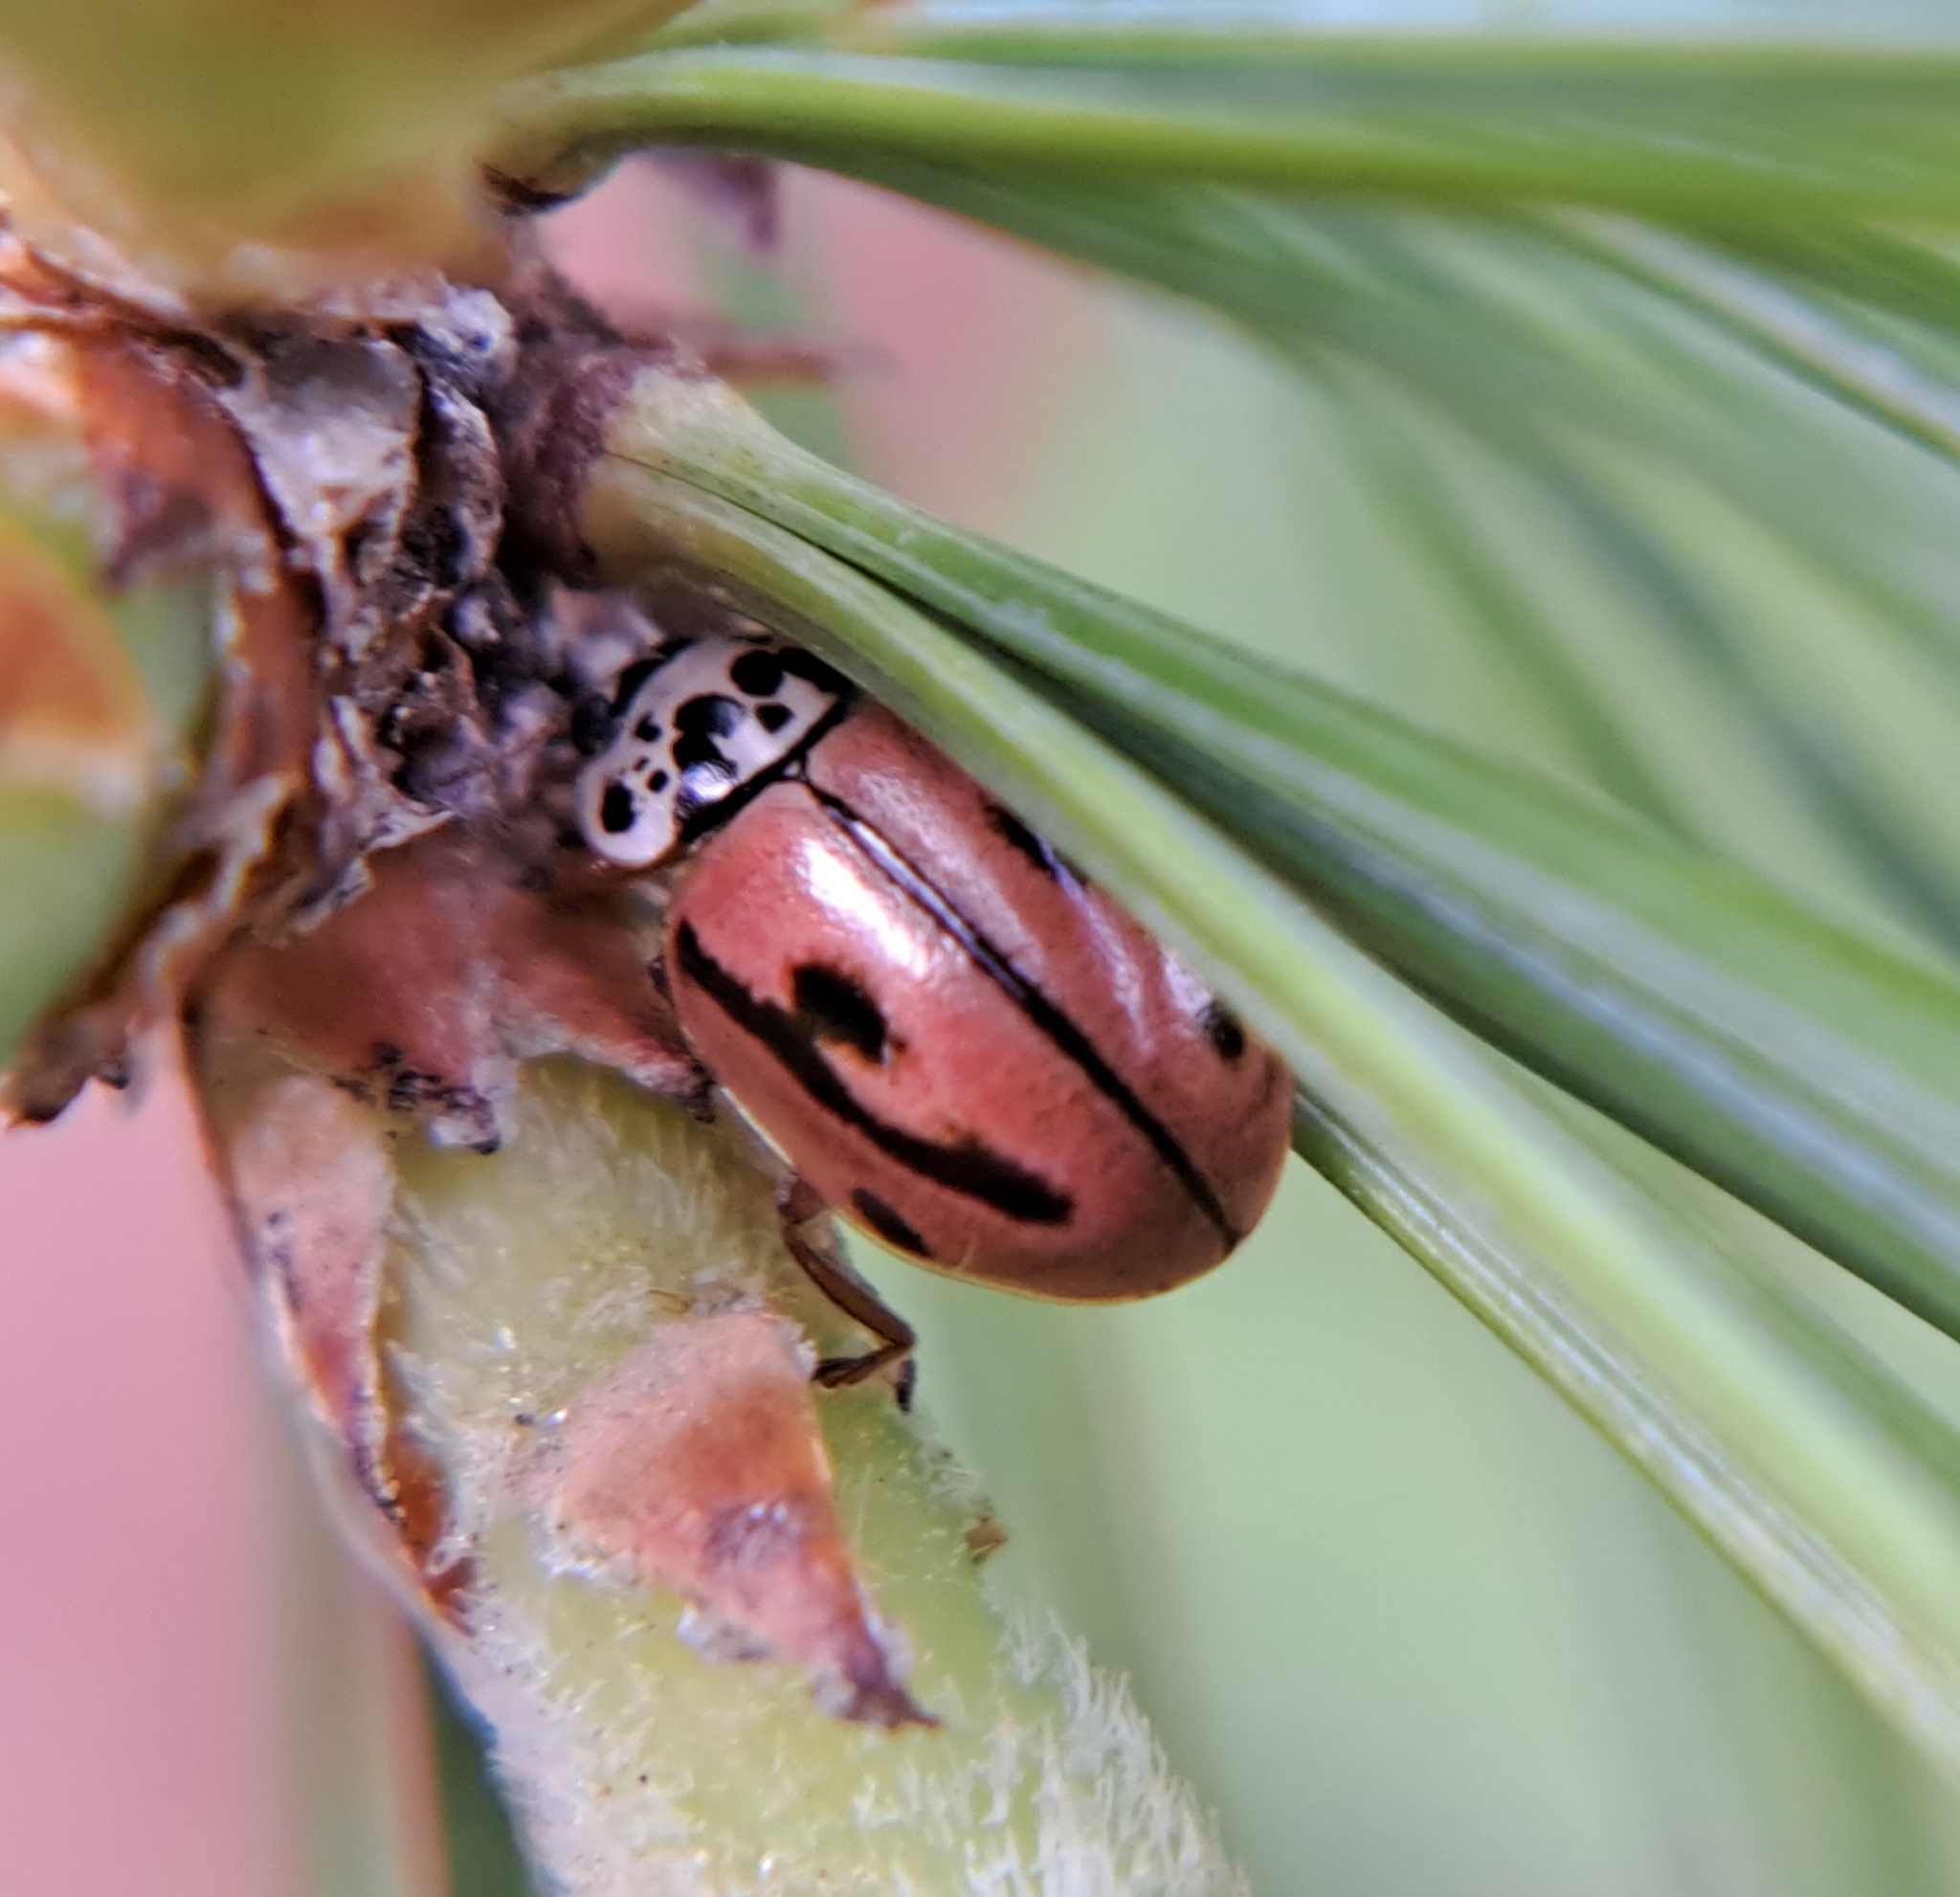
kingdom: Animalia
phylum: Arthropoda
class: Insecta
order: Coleoptera
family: Coccinellidae
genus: Mulsantina
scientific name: Mulsantina hudsonica
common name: Hudsonian ladybird
